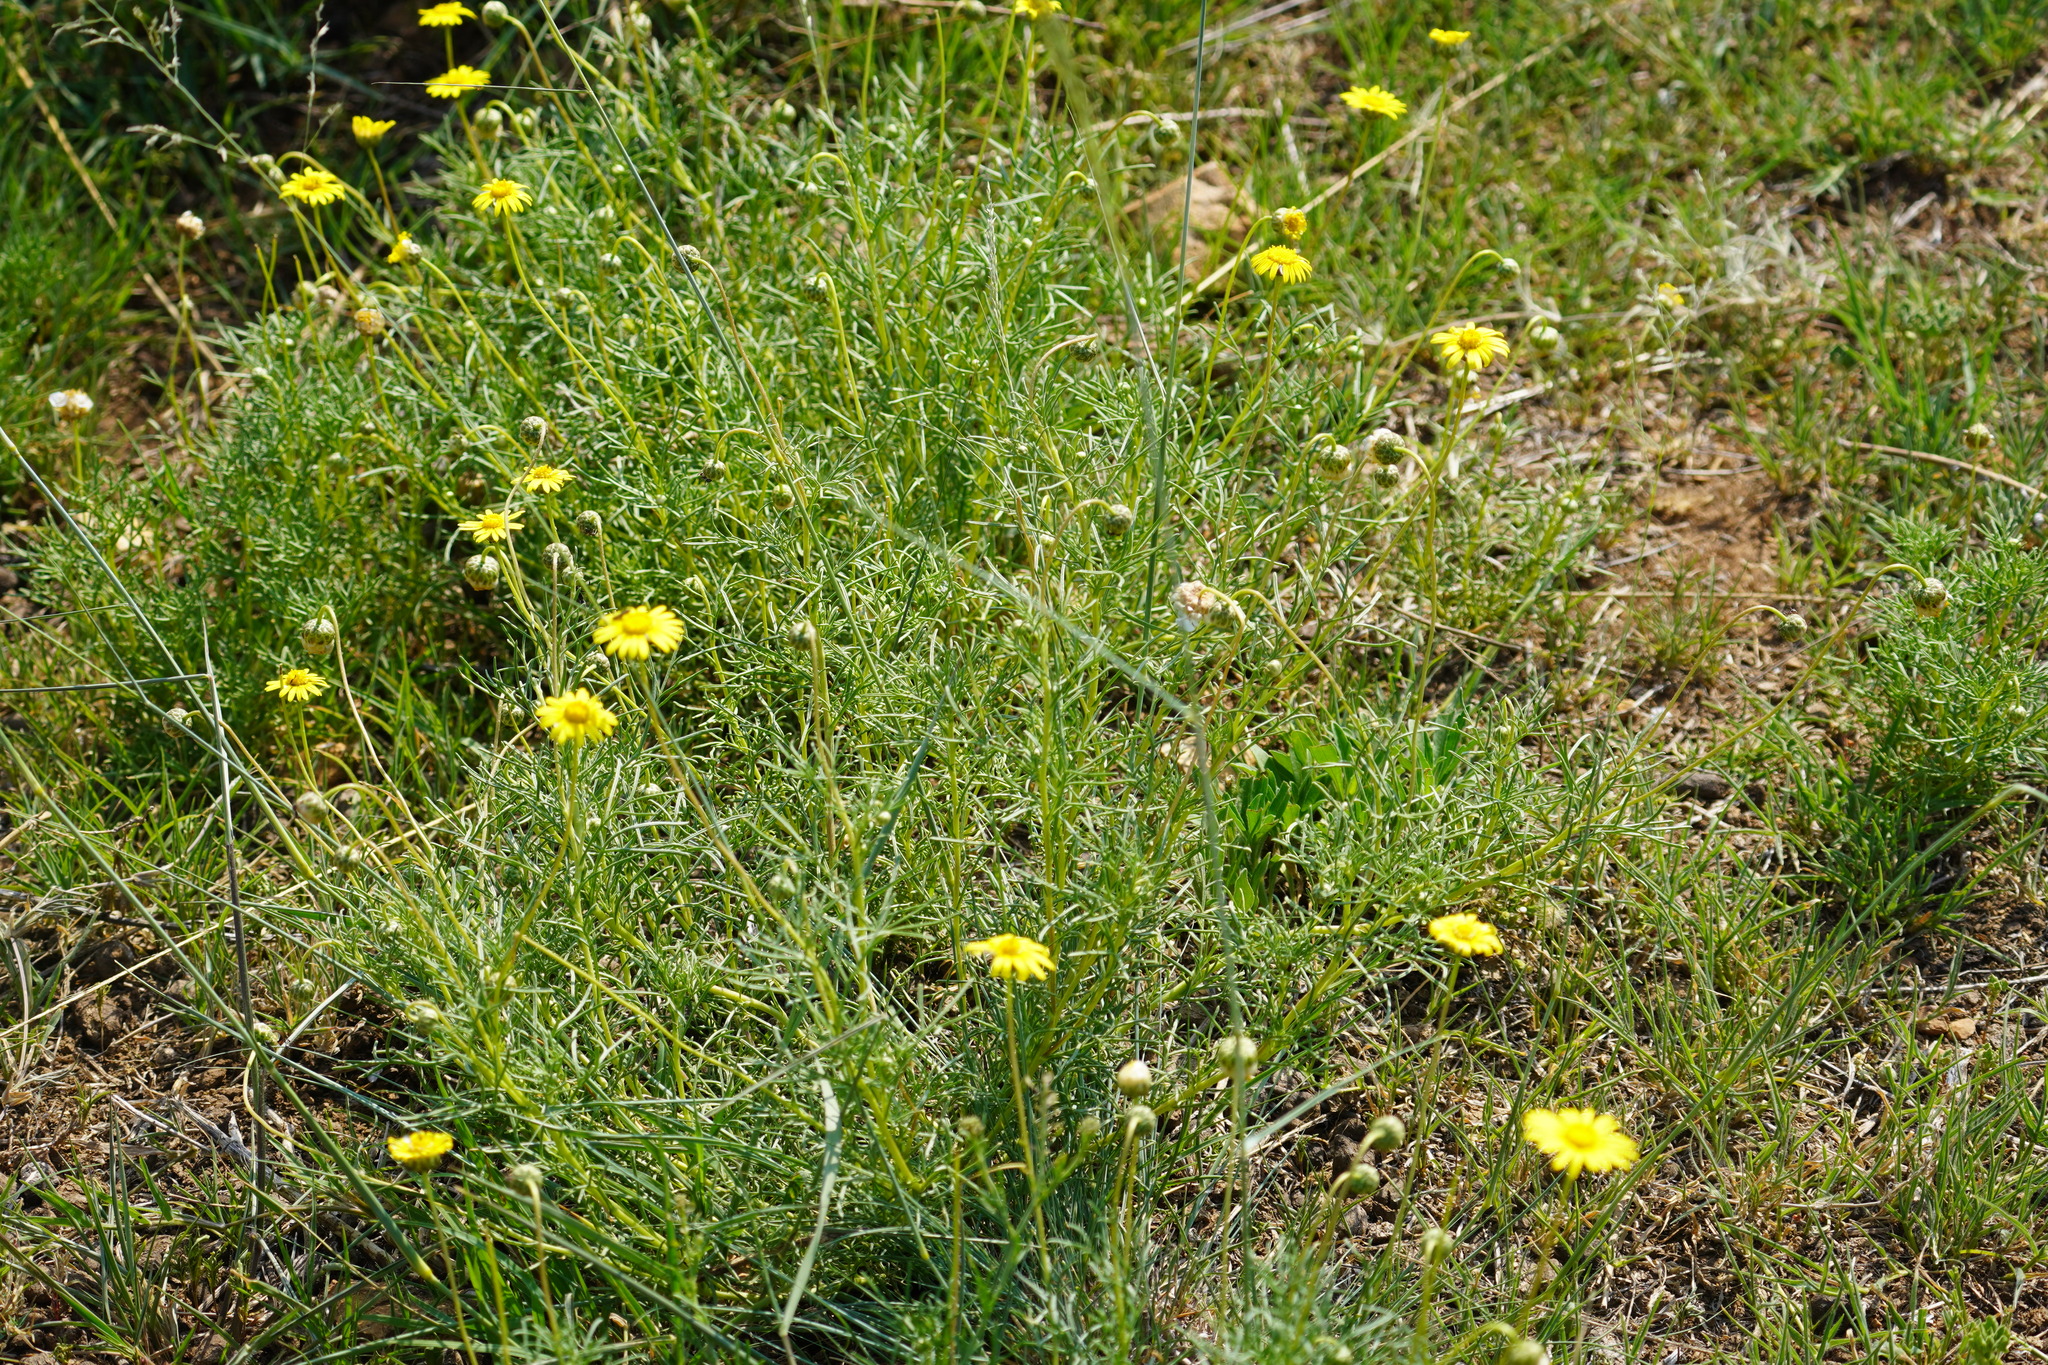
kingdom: Plantae
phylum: Tracheophyta
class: Magnoliopsida
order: Asterales
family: Asteraceae
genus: Ursinia
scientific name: Ursinia nana
